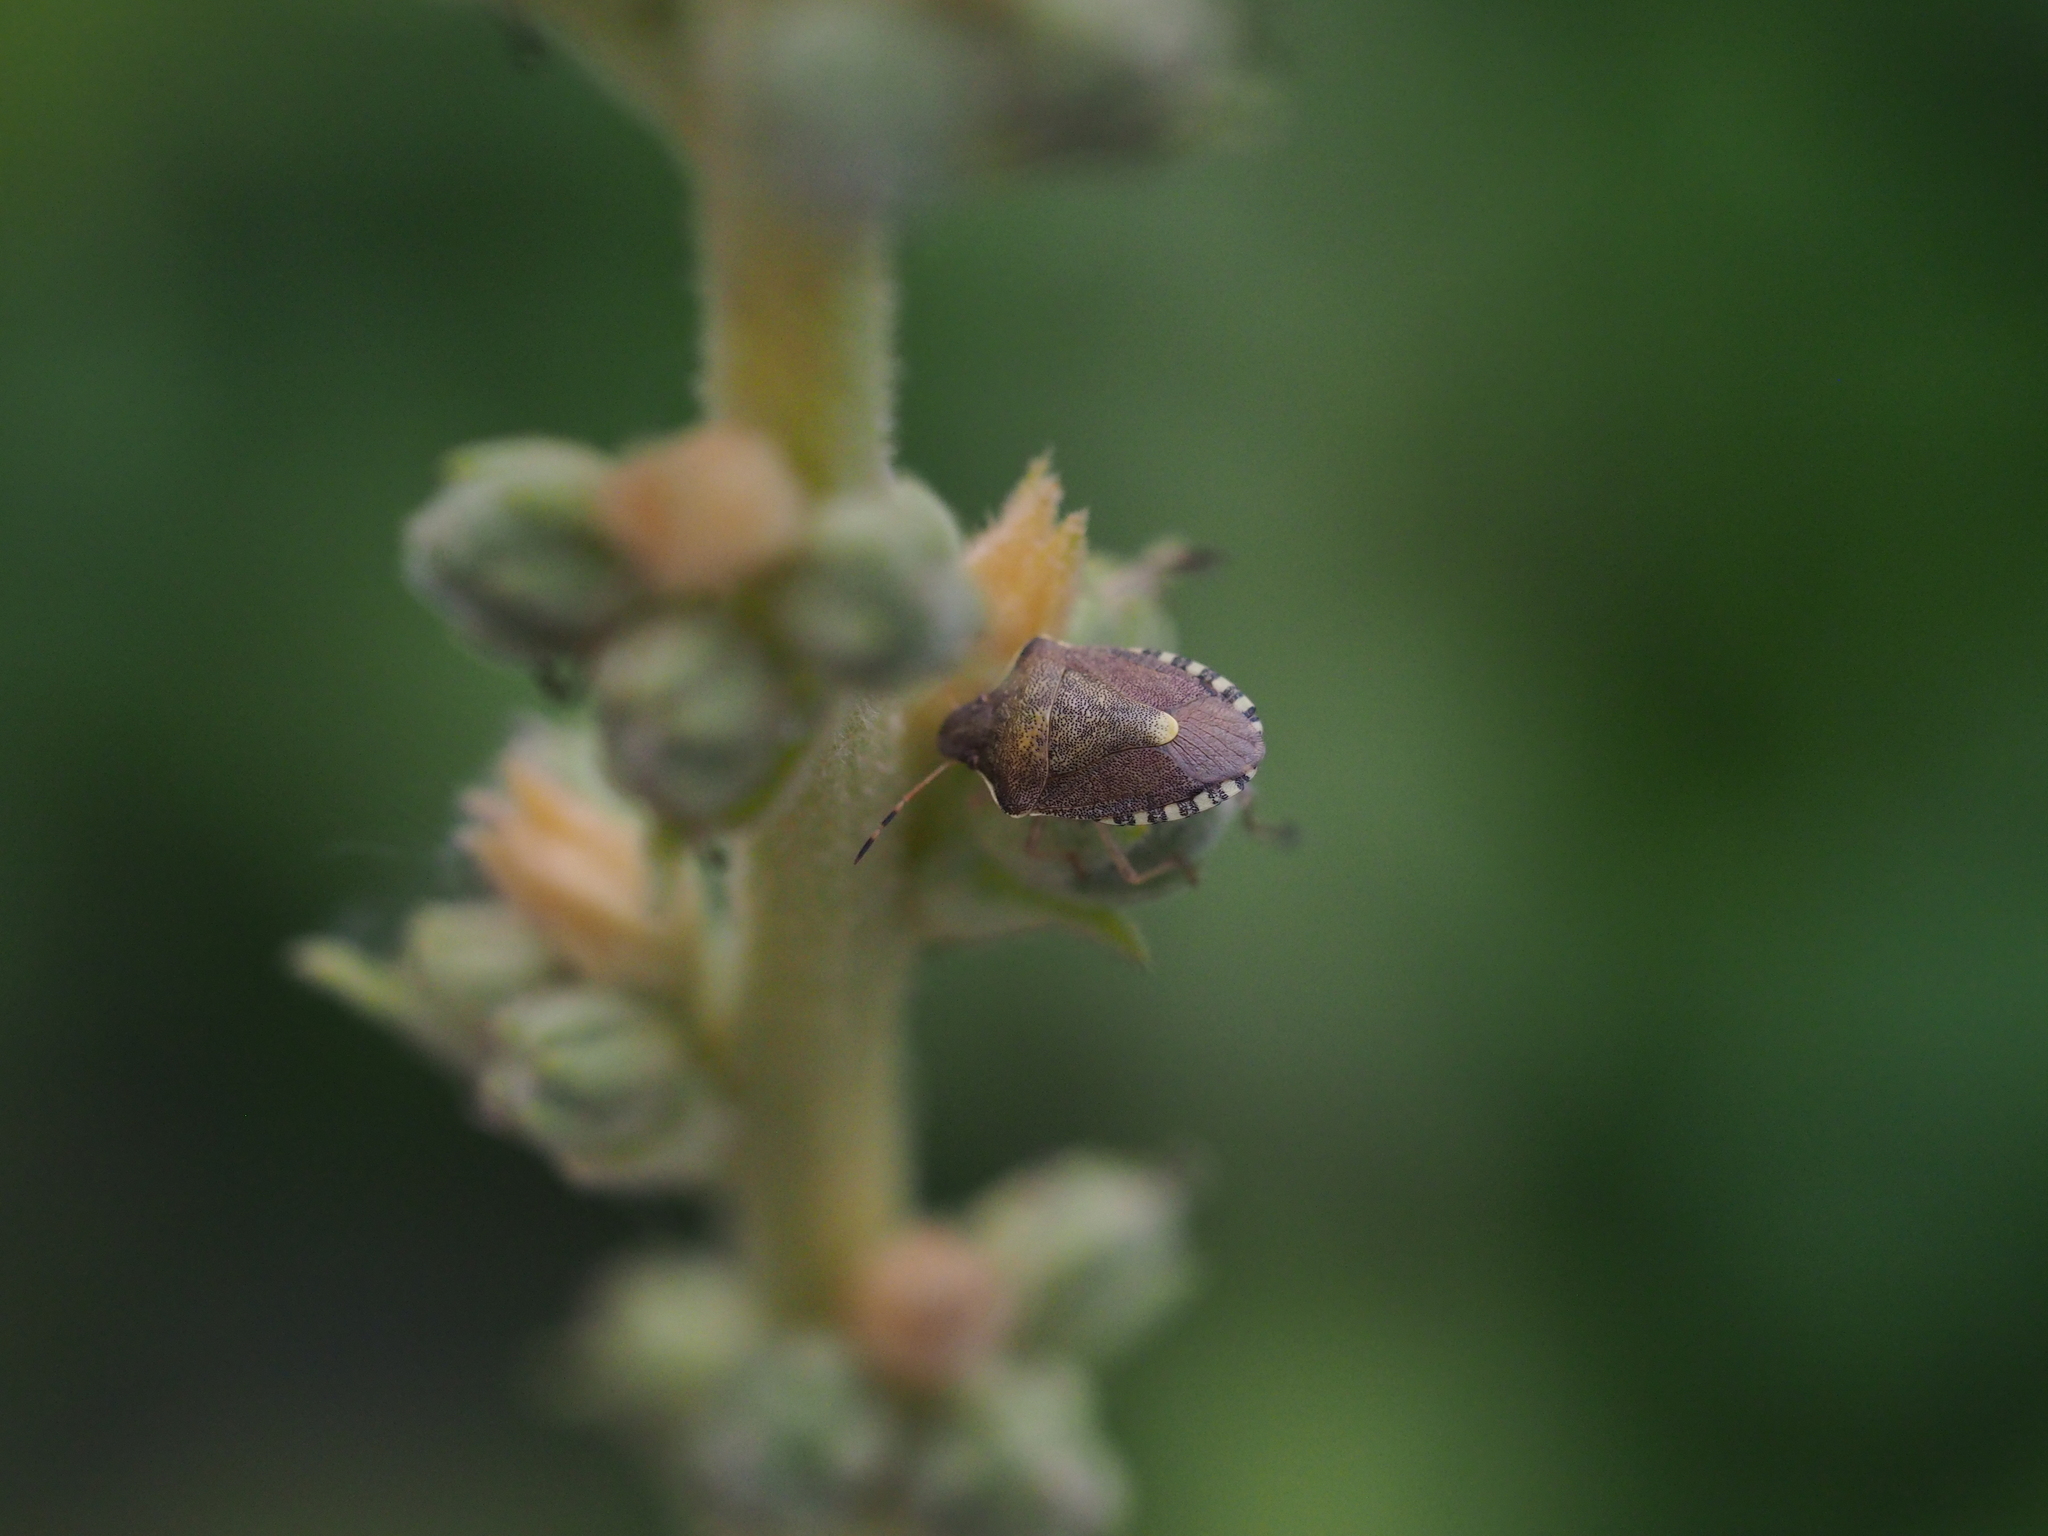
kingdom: Animalia
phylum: Arthropoda
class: Insecta
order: Hemiptera
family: Pentatomidae
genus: Holcostethus
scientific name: Holcostethus strictus
